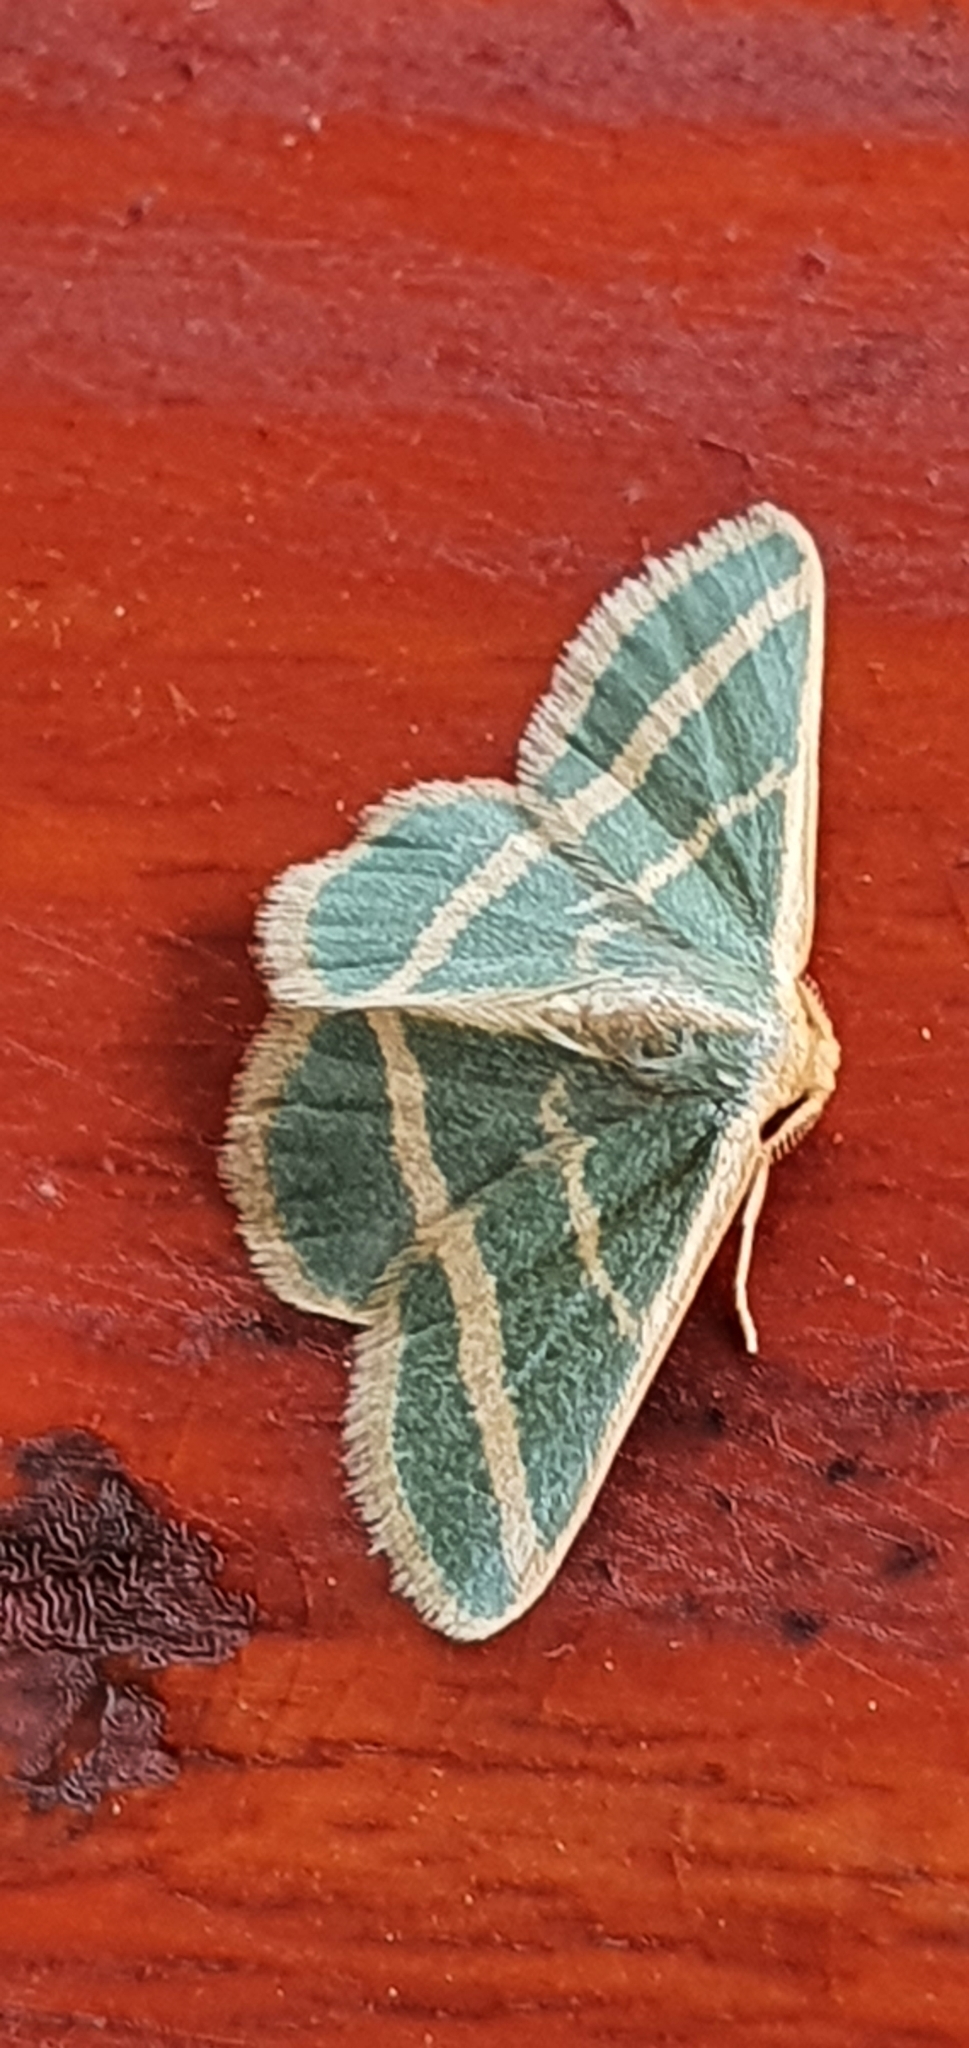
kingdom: Animalia
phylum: Arthropoda
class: Insecta
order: Lepidoptera
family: Geometridae
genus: Mixocera
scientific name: Mixocera latilineata
